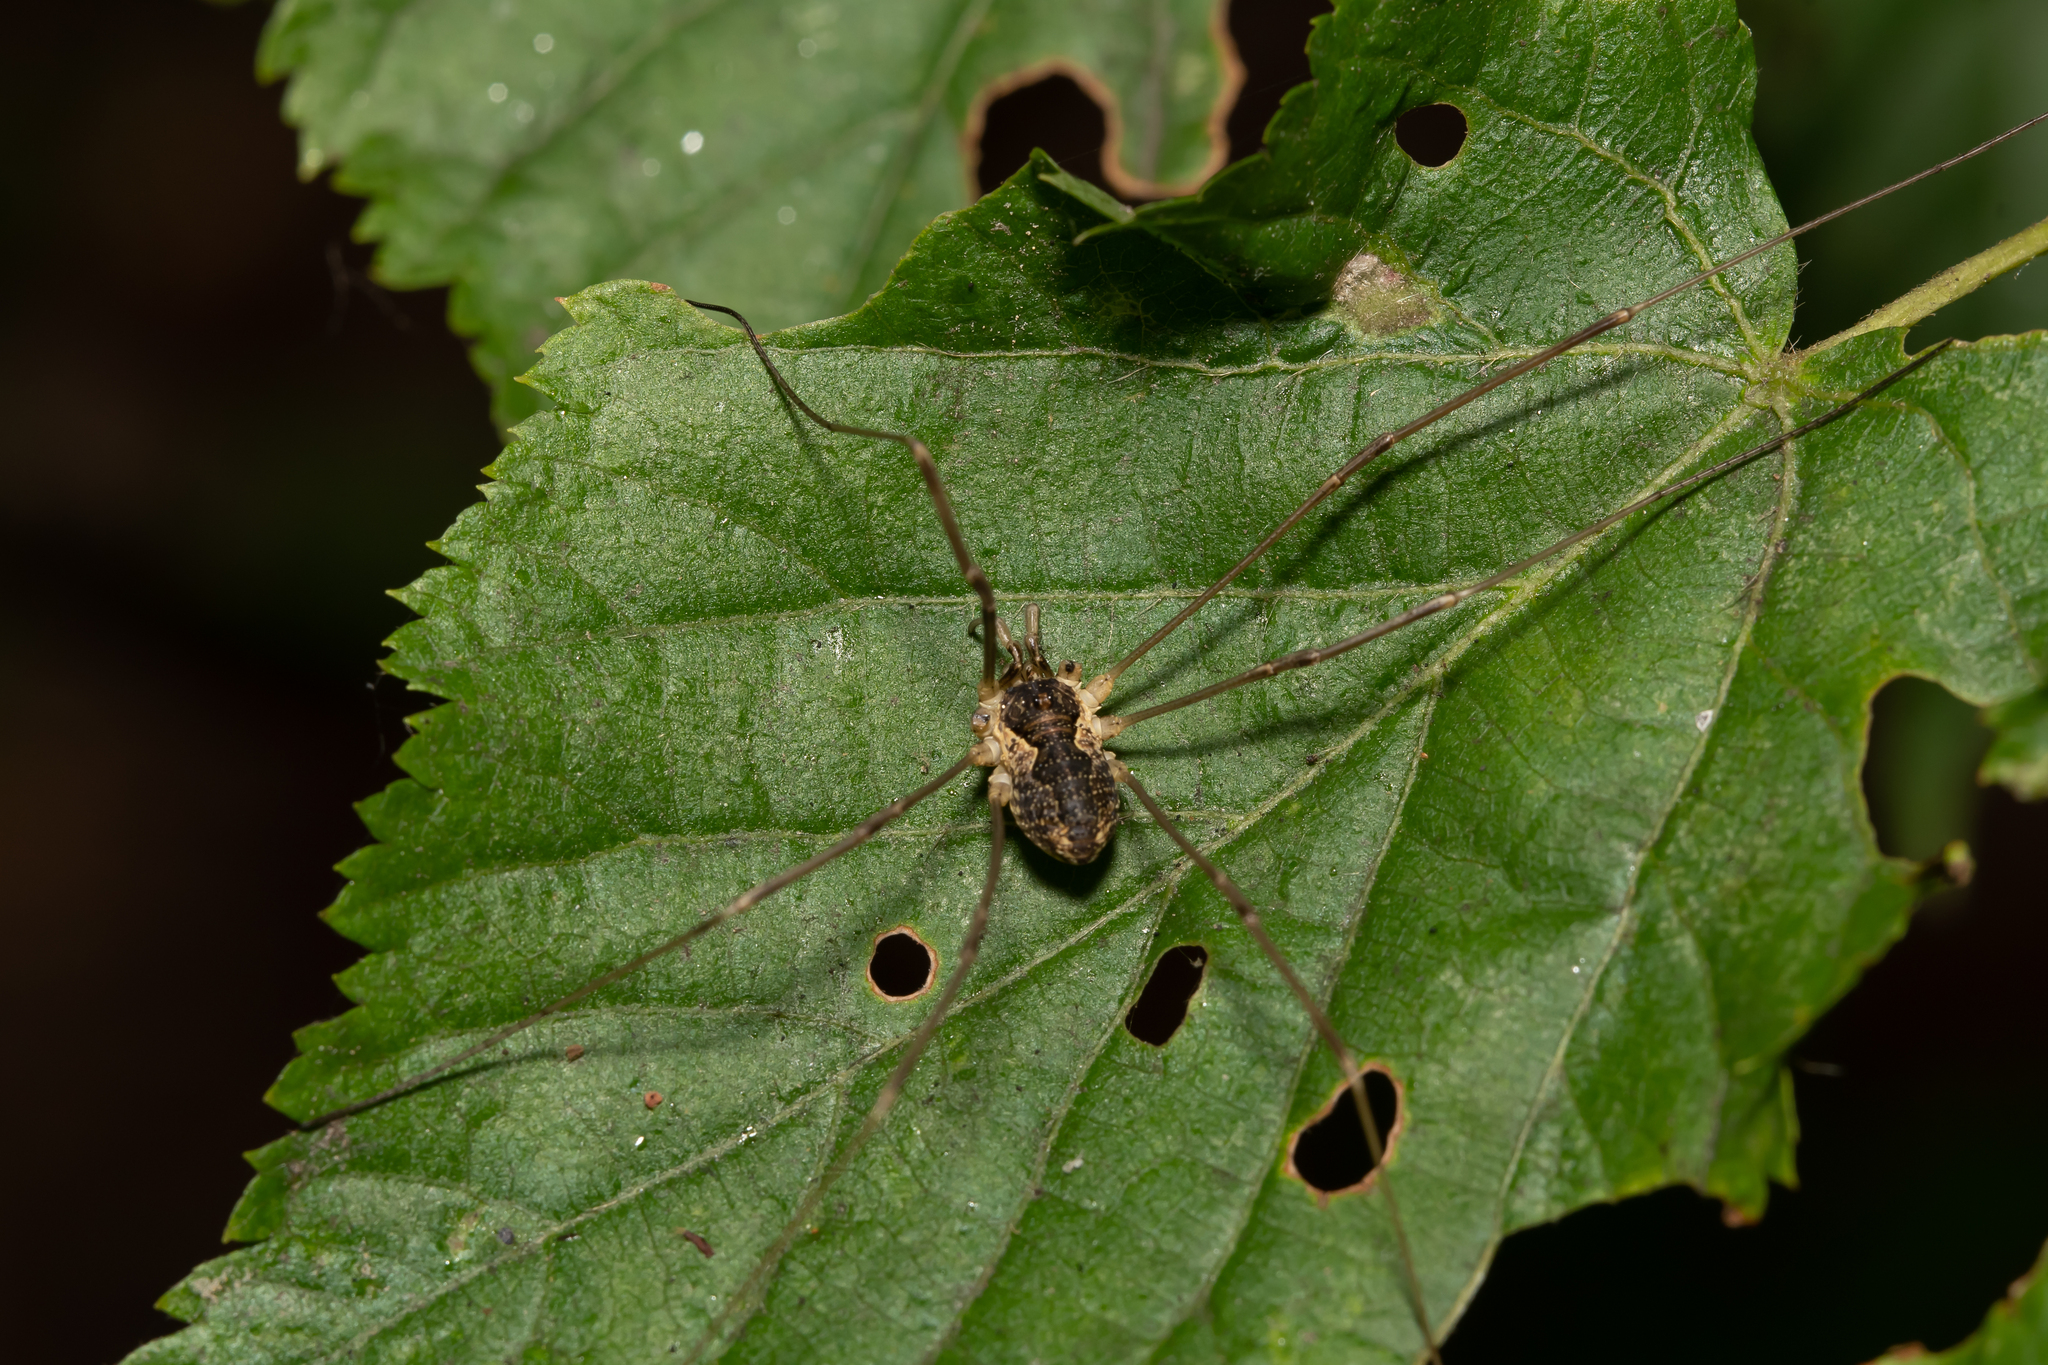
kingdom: Animalia
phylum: Arthropoda
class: Arachnida
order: Opiliones
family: Phalangiidae
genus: Mitopus
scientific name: Mitopus morio
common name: Saddleback harvestman
